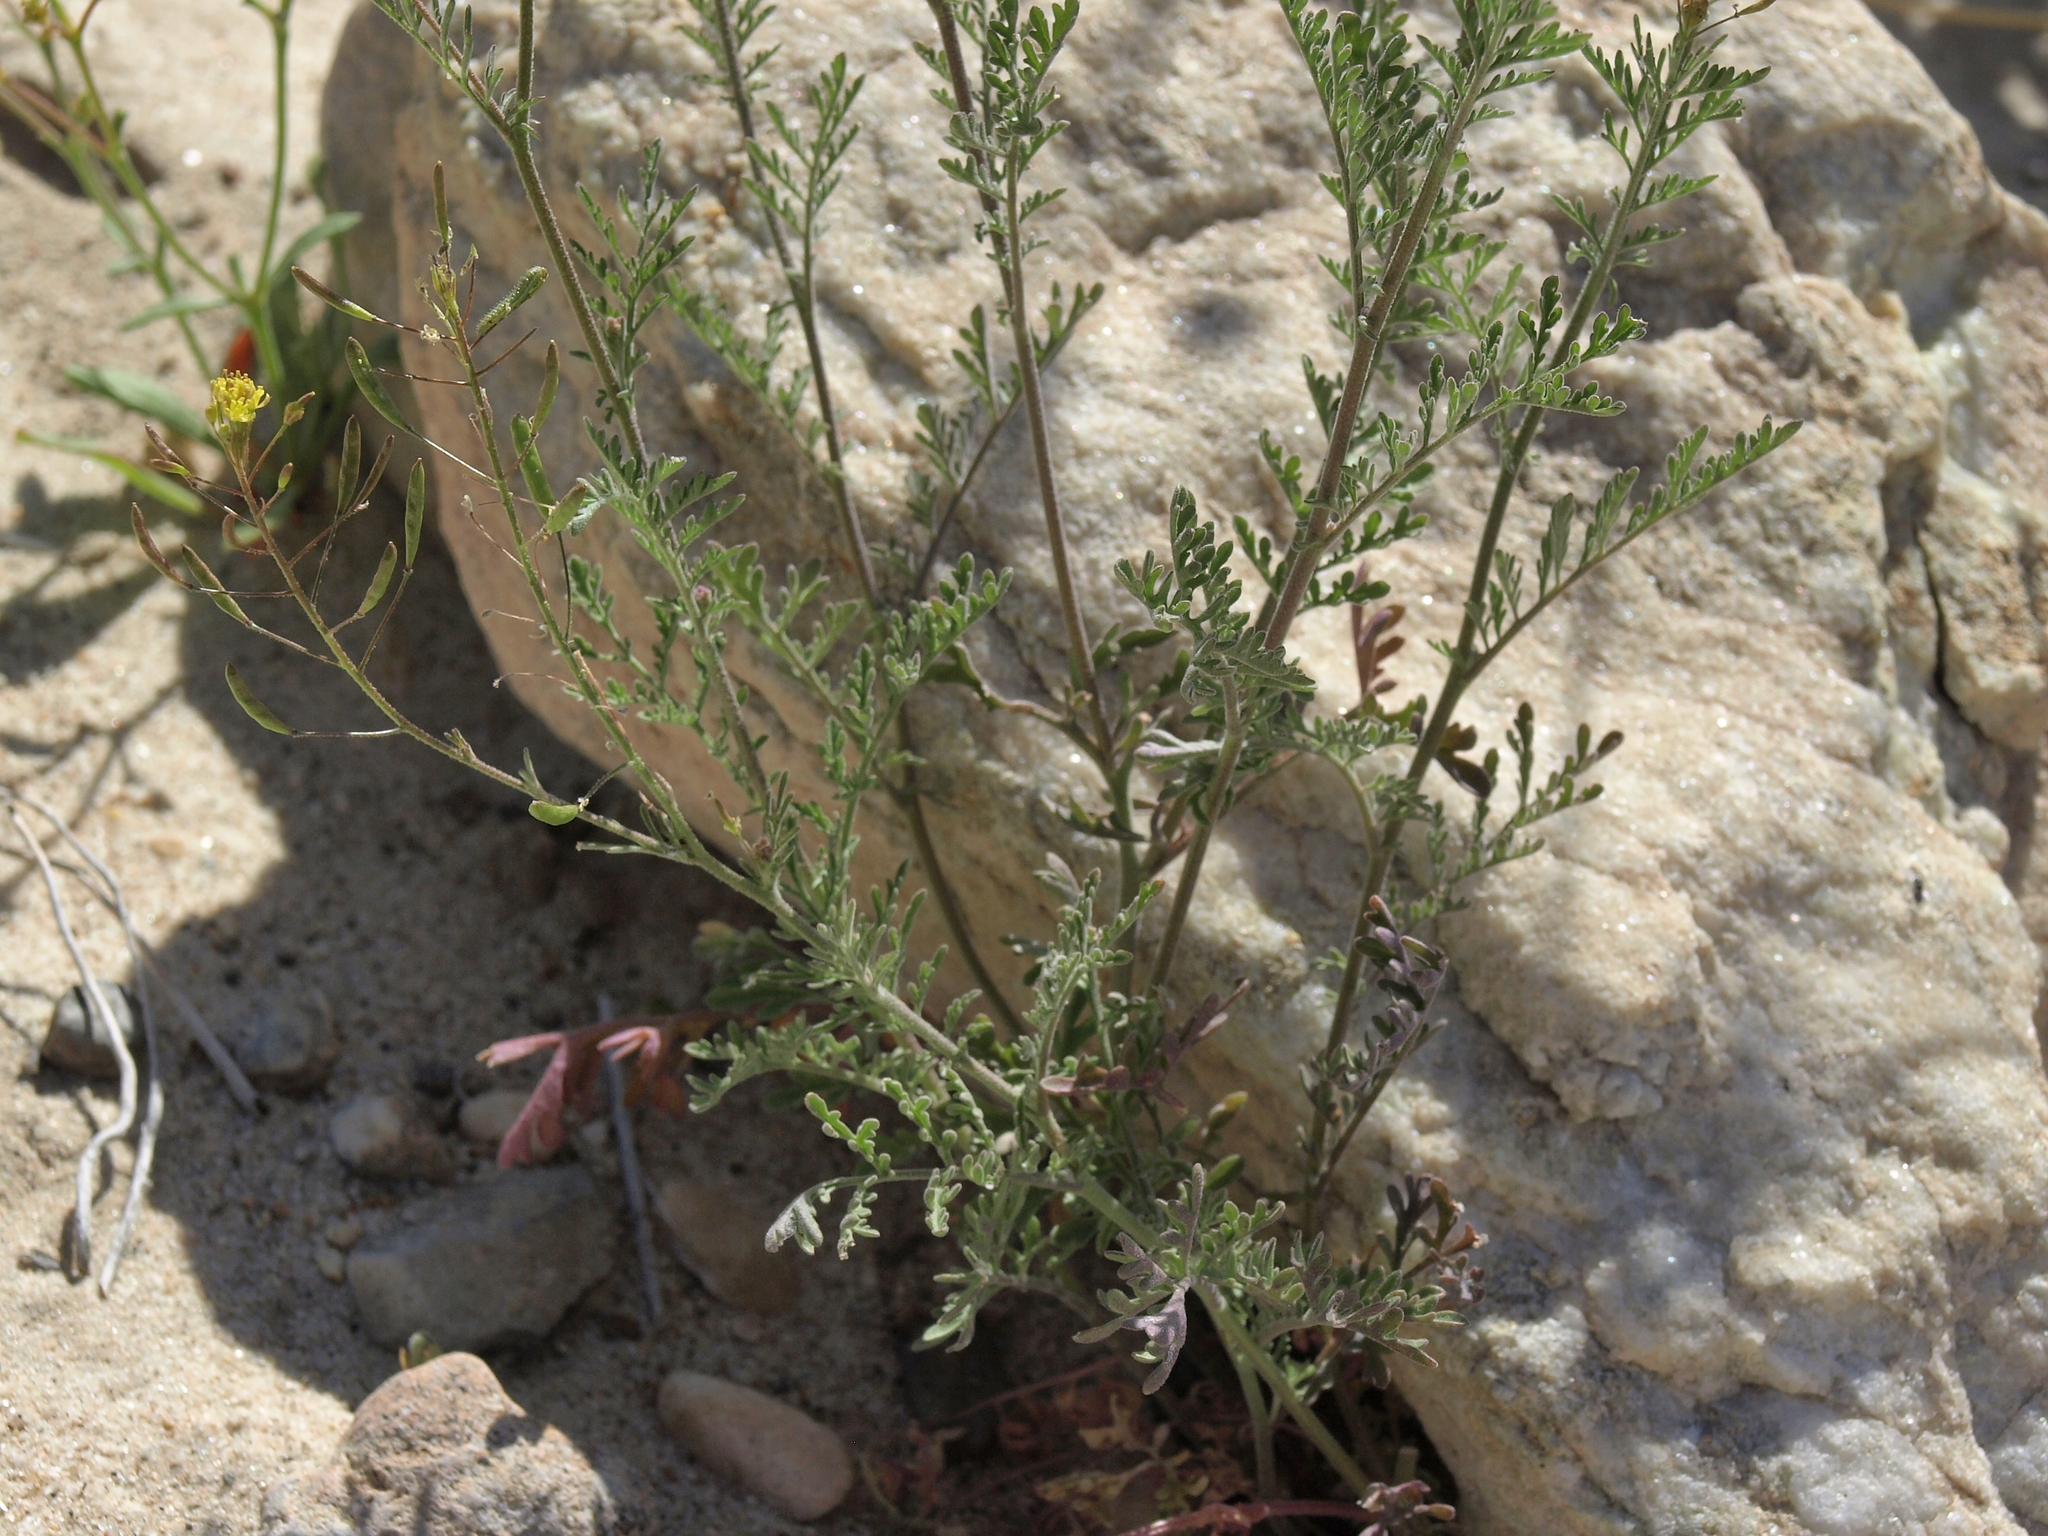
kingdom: Plantae
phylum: Tracheophyta
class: Magnoliopsida
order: Brassicales
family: Brassicaceae
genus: Descurainia
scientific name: Descurainia pinnata
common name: Western tansy mustard
